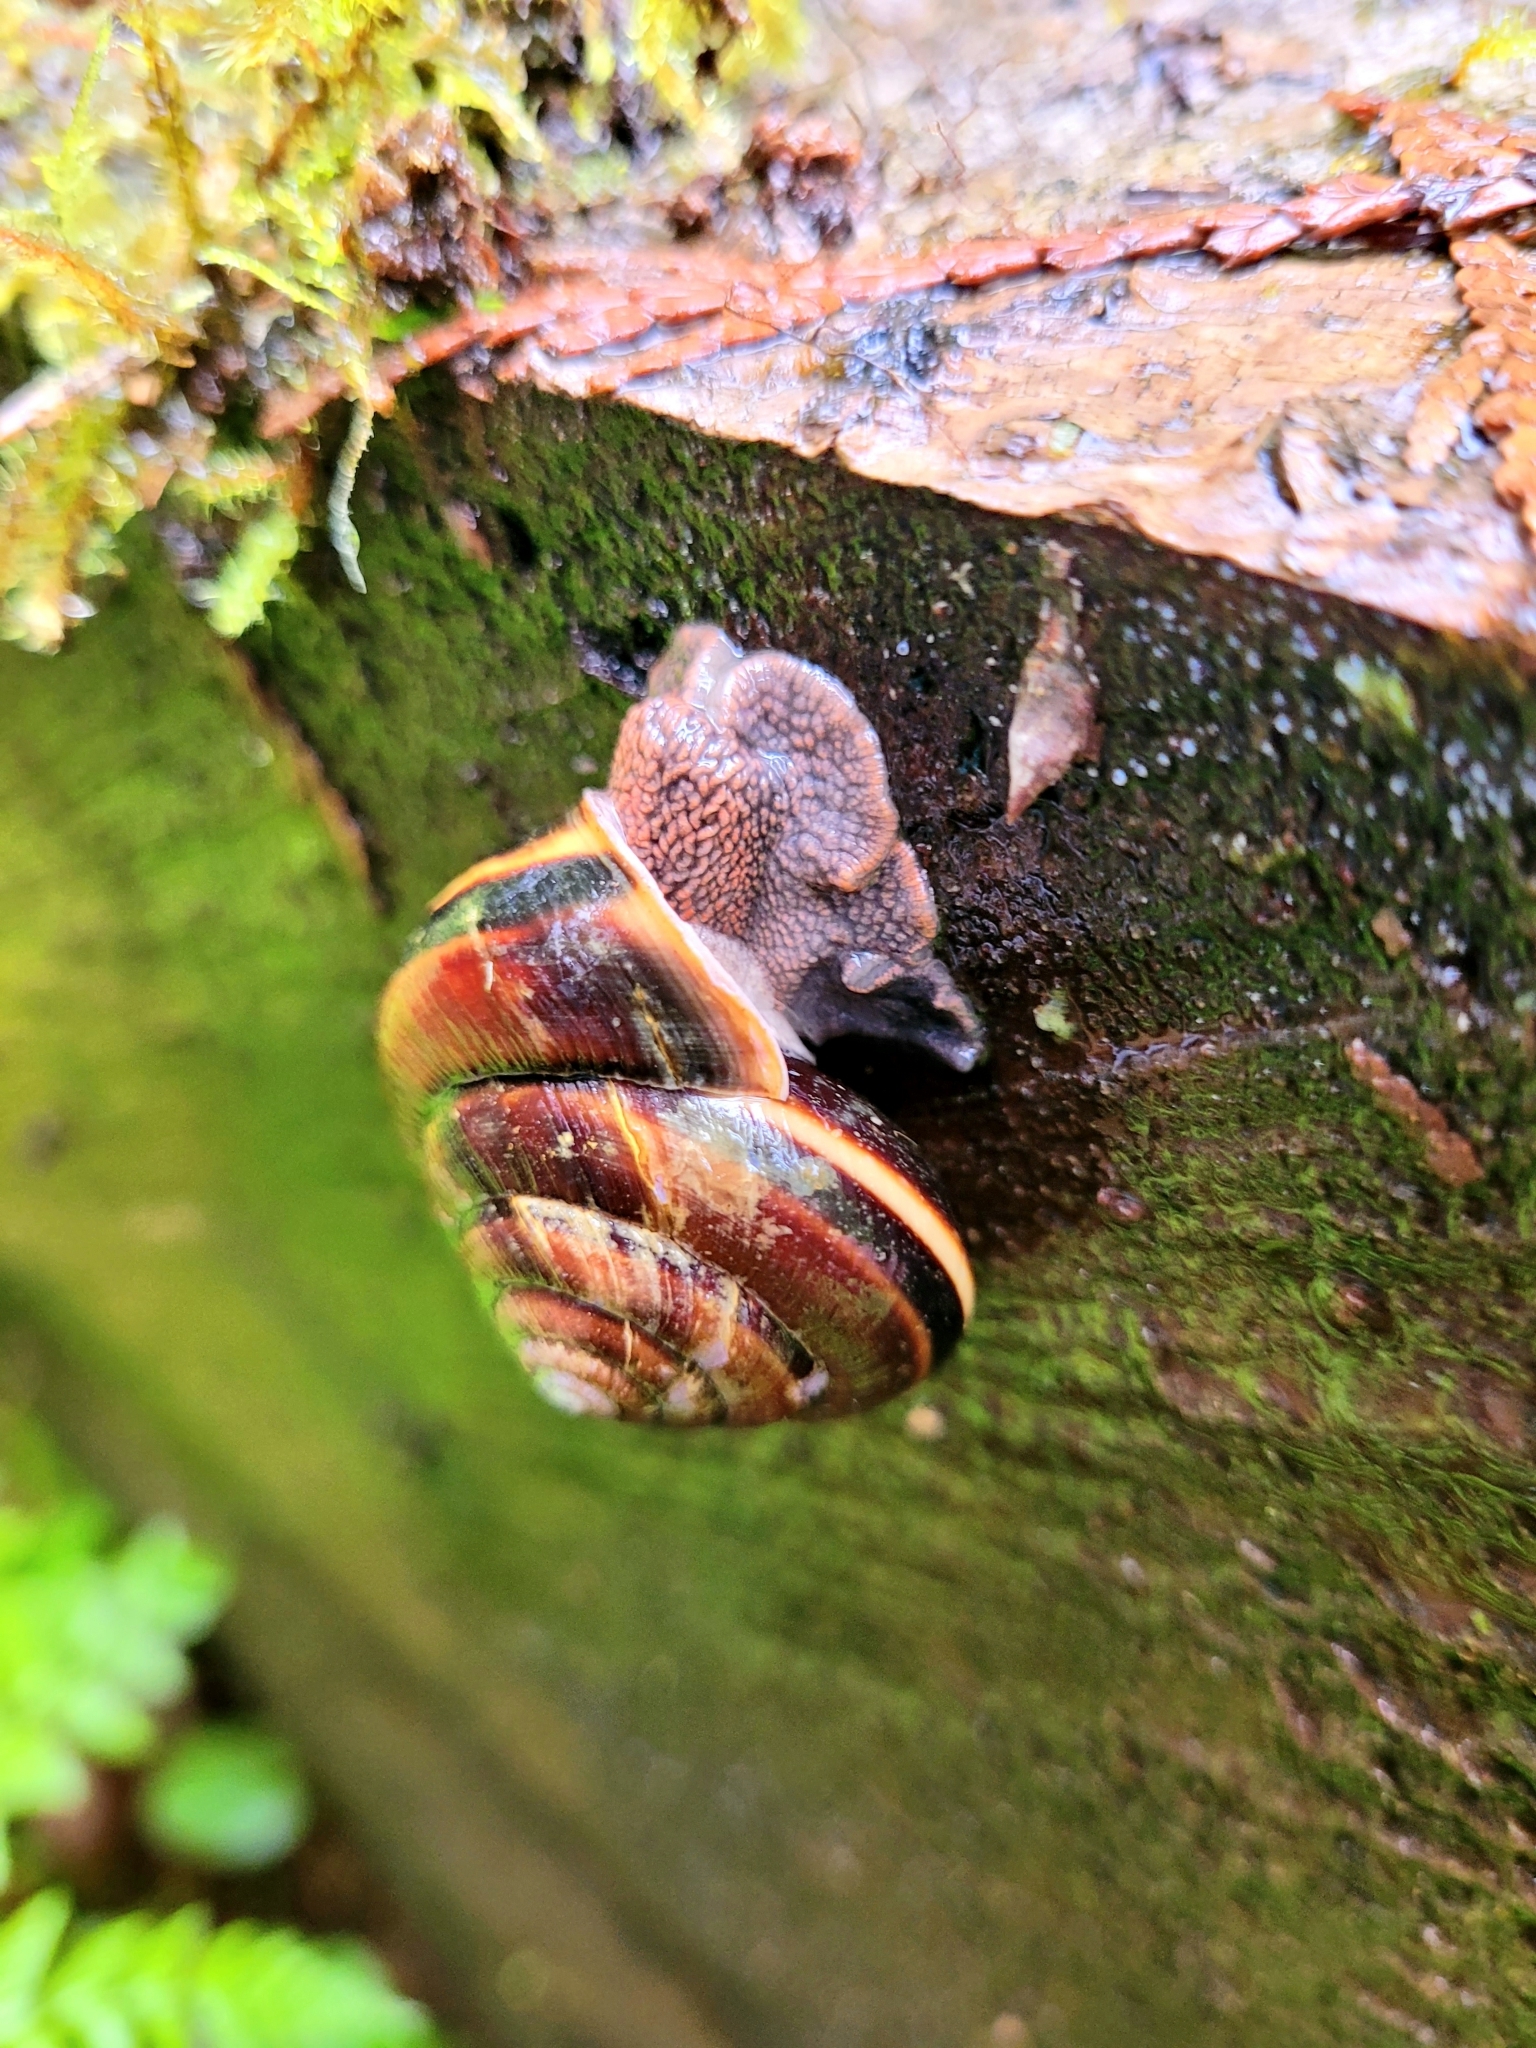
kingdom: Animalia
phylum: Mollusca
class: Gastropoda
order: Stylommatophora
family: Xanthonychidae
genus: Monadenia
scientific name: Monadenia fidelis
